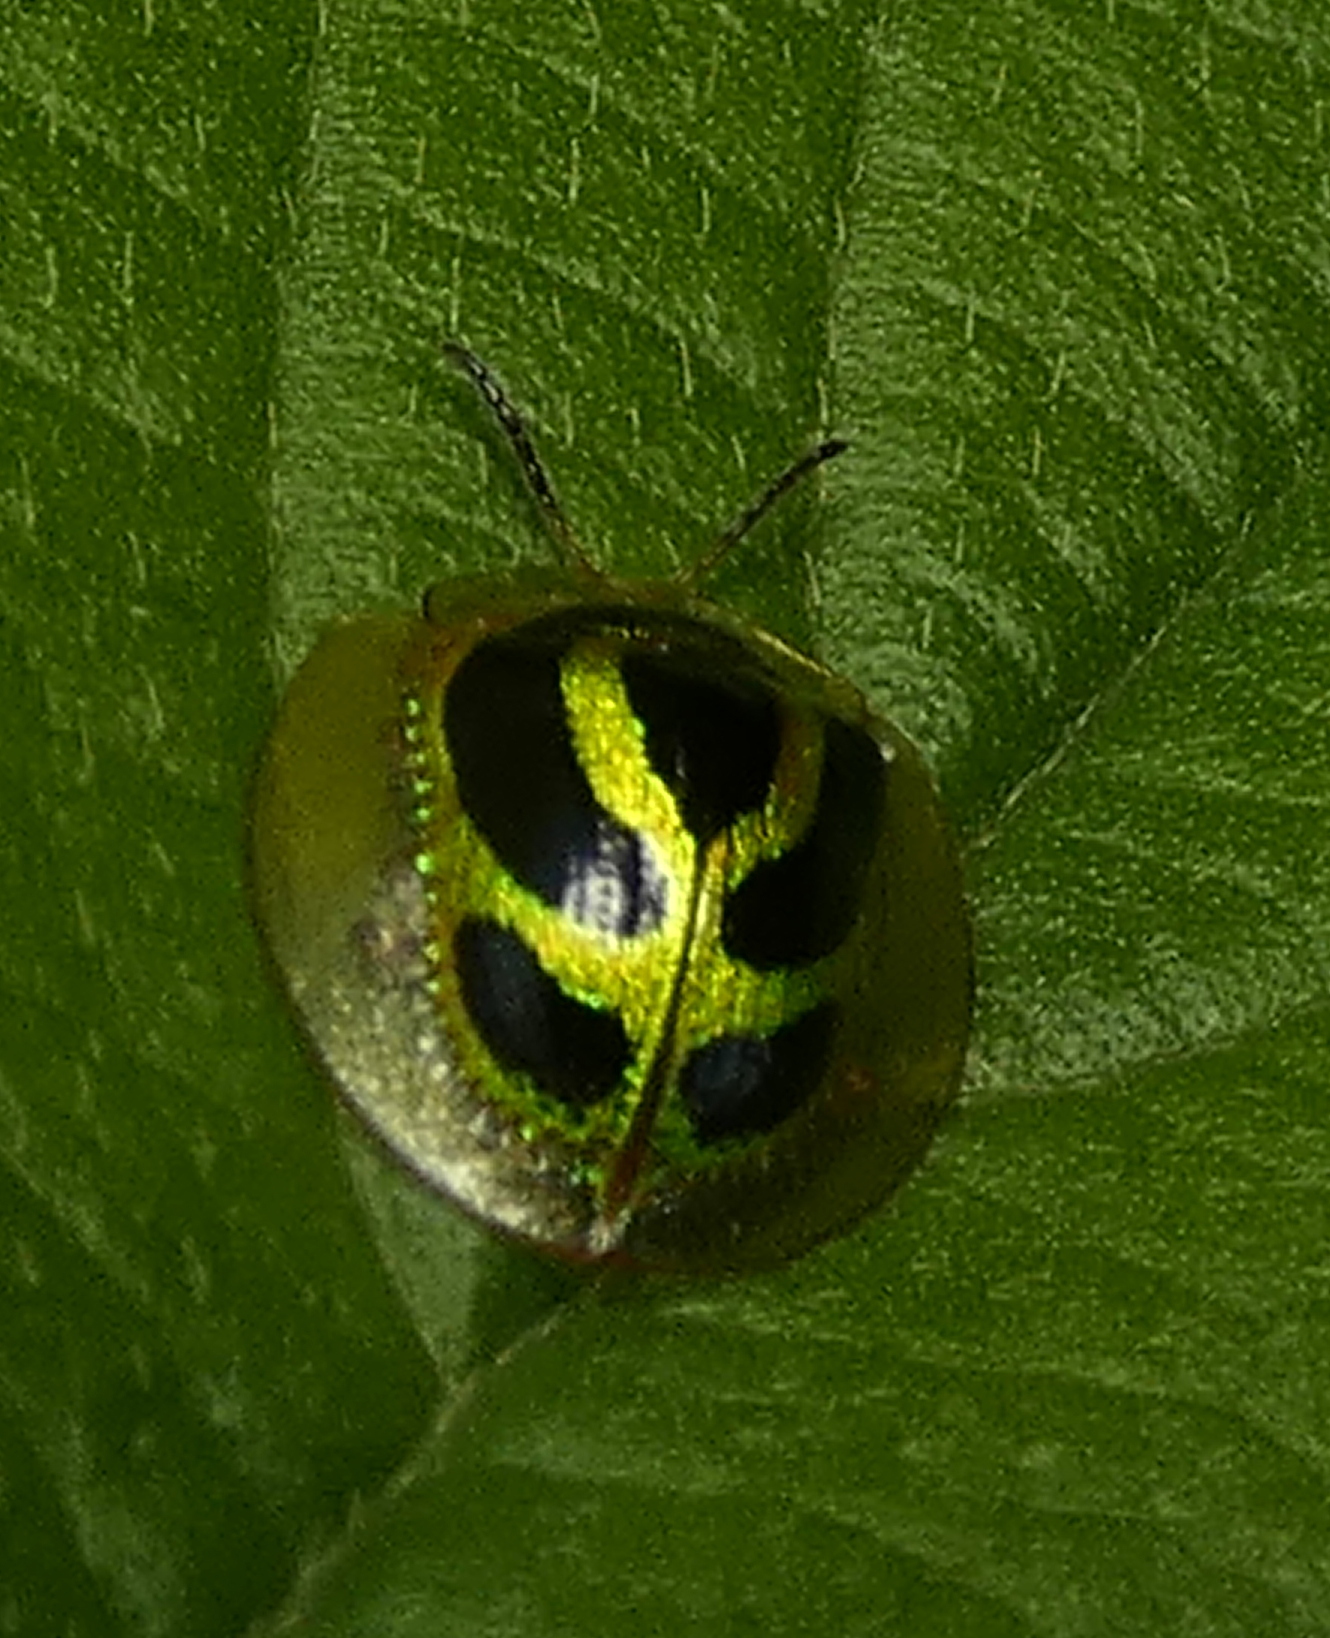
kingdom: Animalia
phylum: Arthropoda
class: Insecta
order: Coleoptera
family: Chrysomelidae
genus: Coptocycla
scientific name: Coptocycla arcuata
